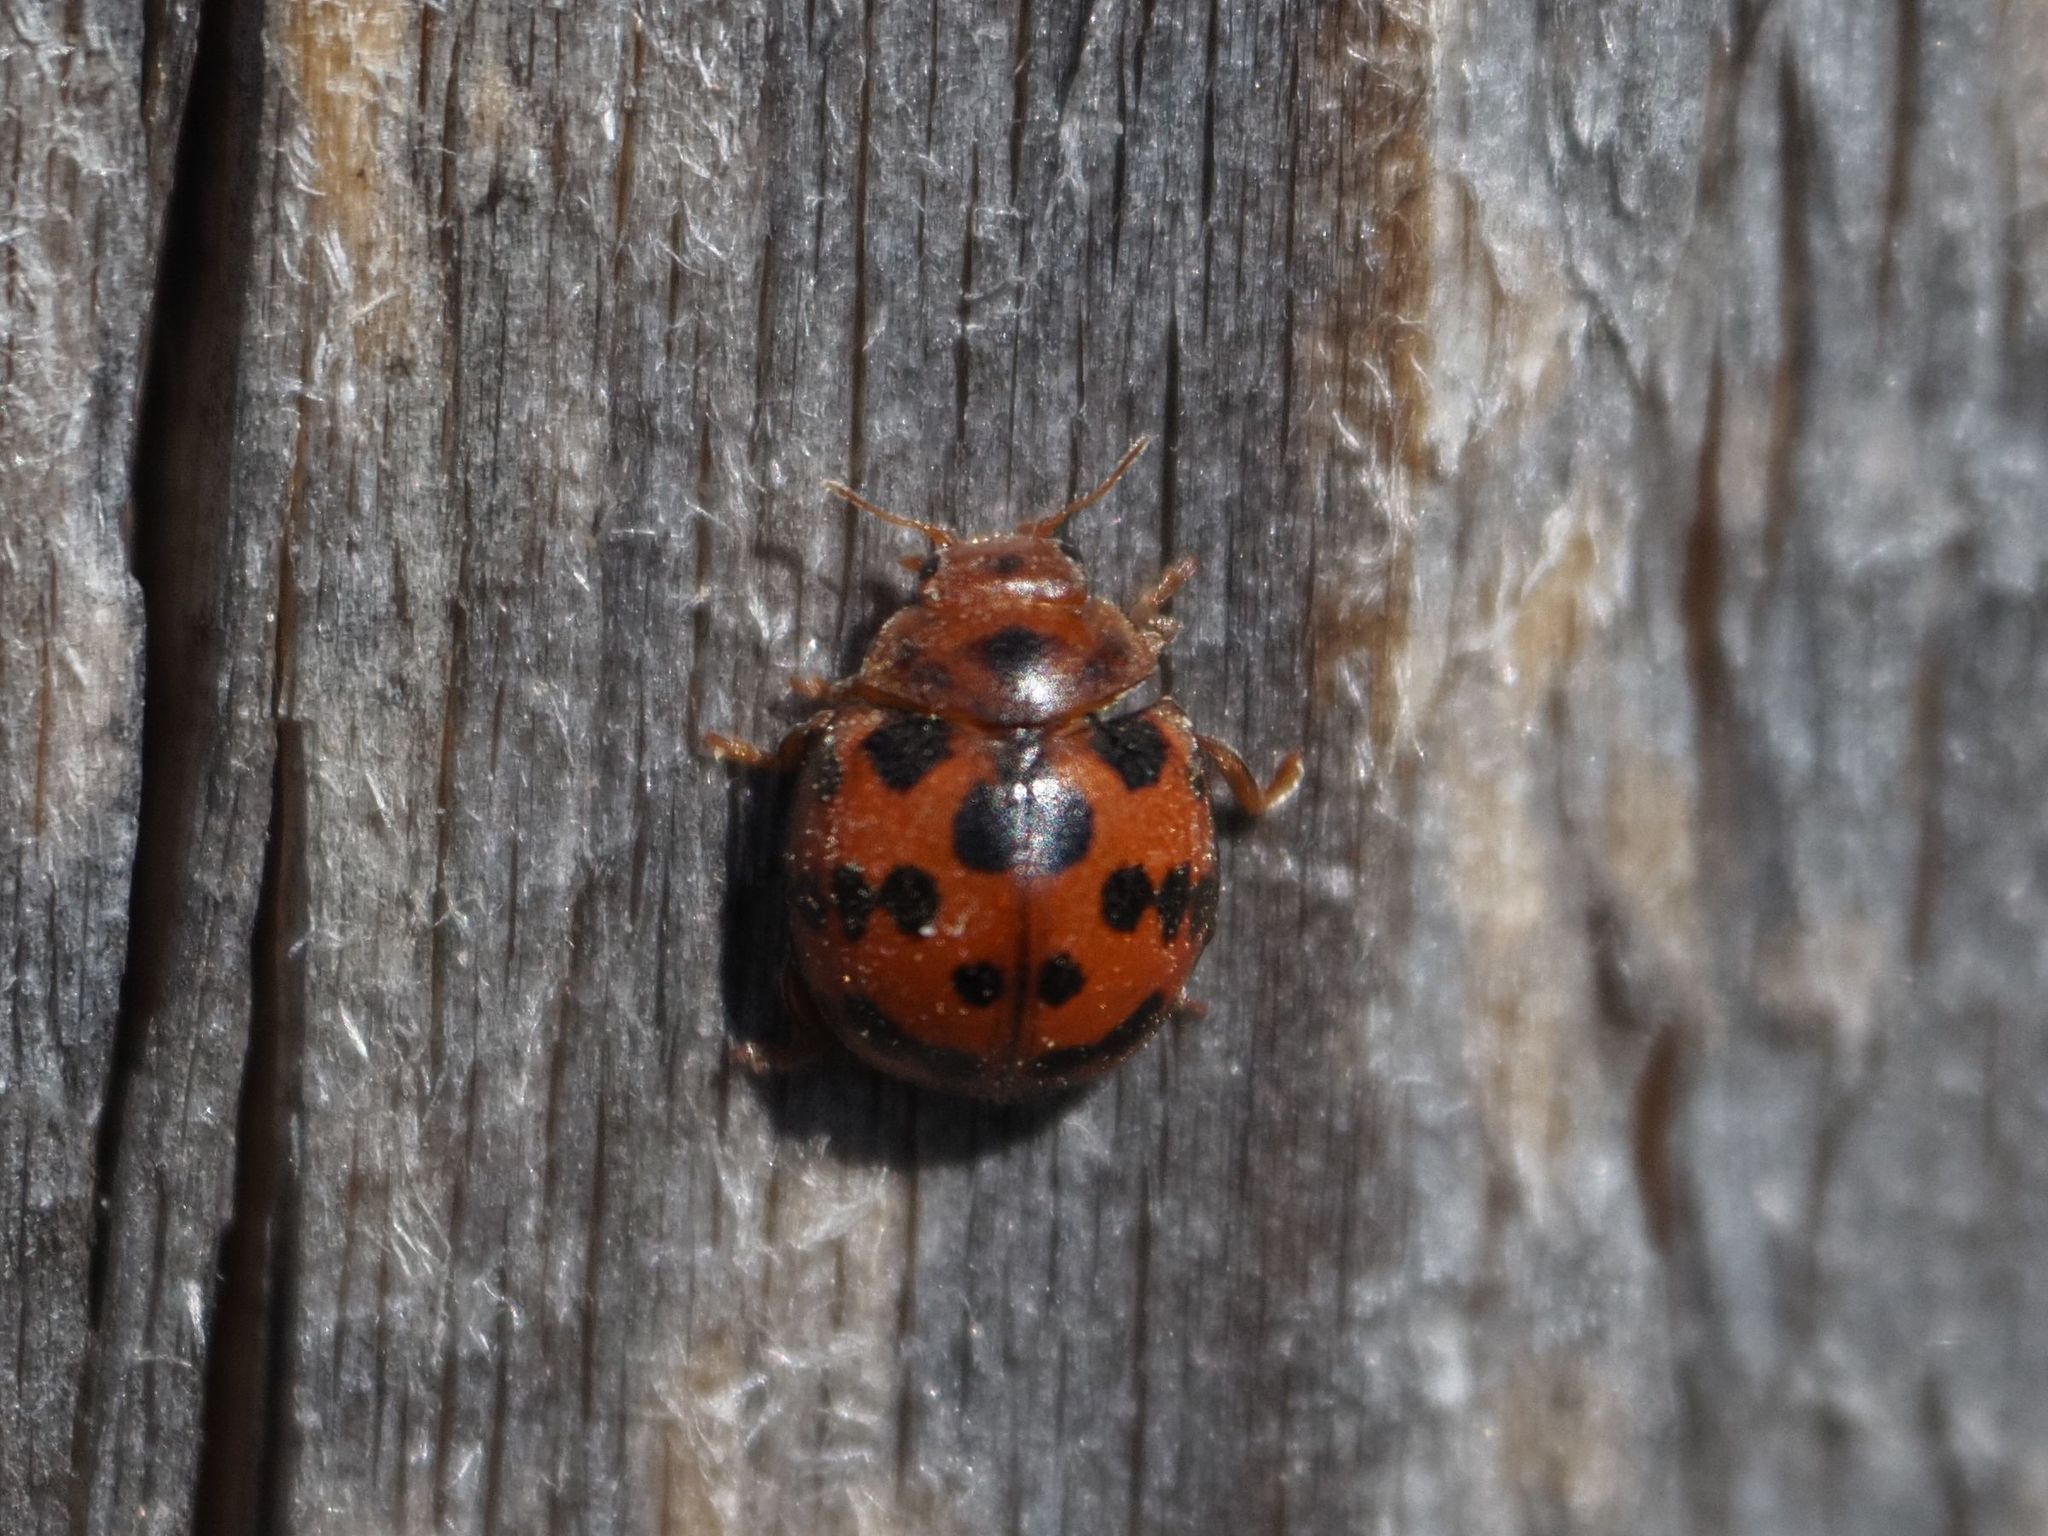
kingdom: Animalia
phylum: Arthropoda
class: Insecta
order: Coleoptera
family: Coccinellidae
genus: Subcoccinella
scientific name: Subcoccinella vigintiquatuorpunctata
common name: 24-spot ladybird
